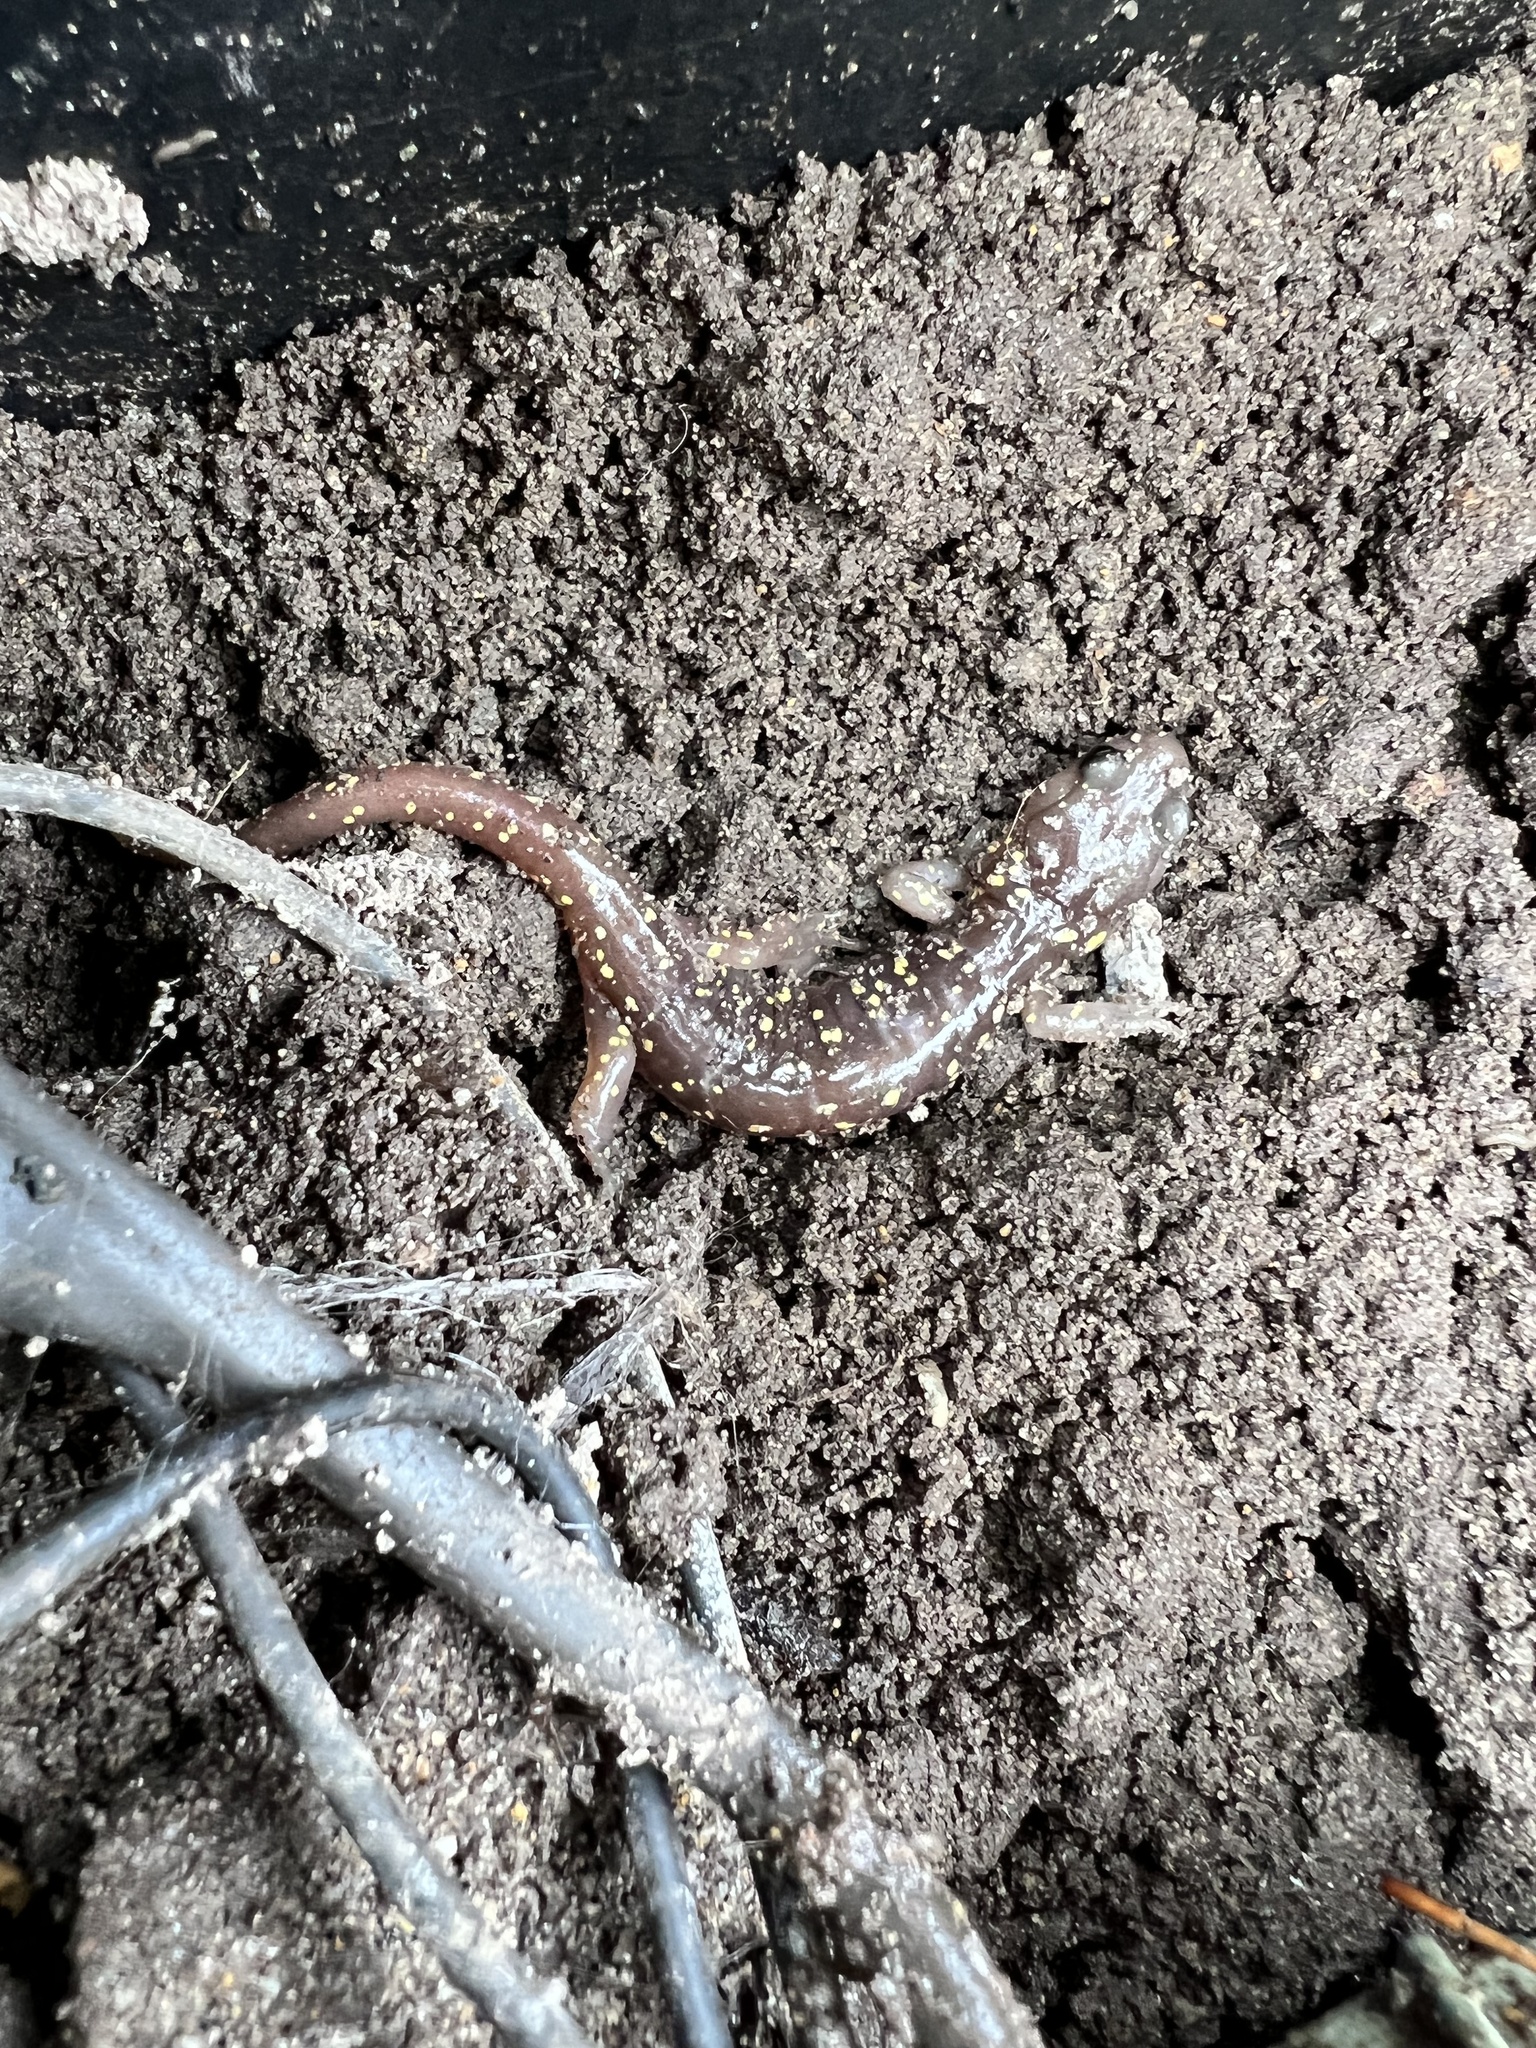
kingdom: Animalia
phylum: Chordata
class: Amphibia
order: Caudata
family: Plethodontidae
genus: Aneides
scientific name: Aneides lugubris
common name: Arboreal salamander
